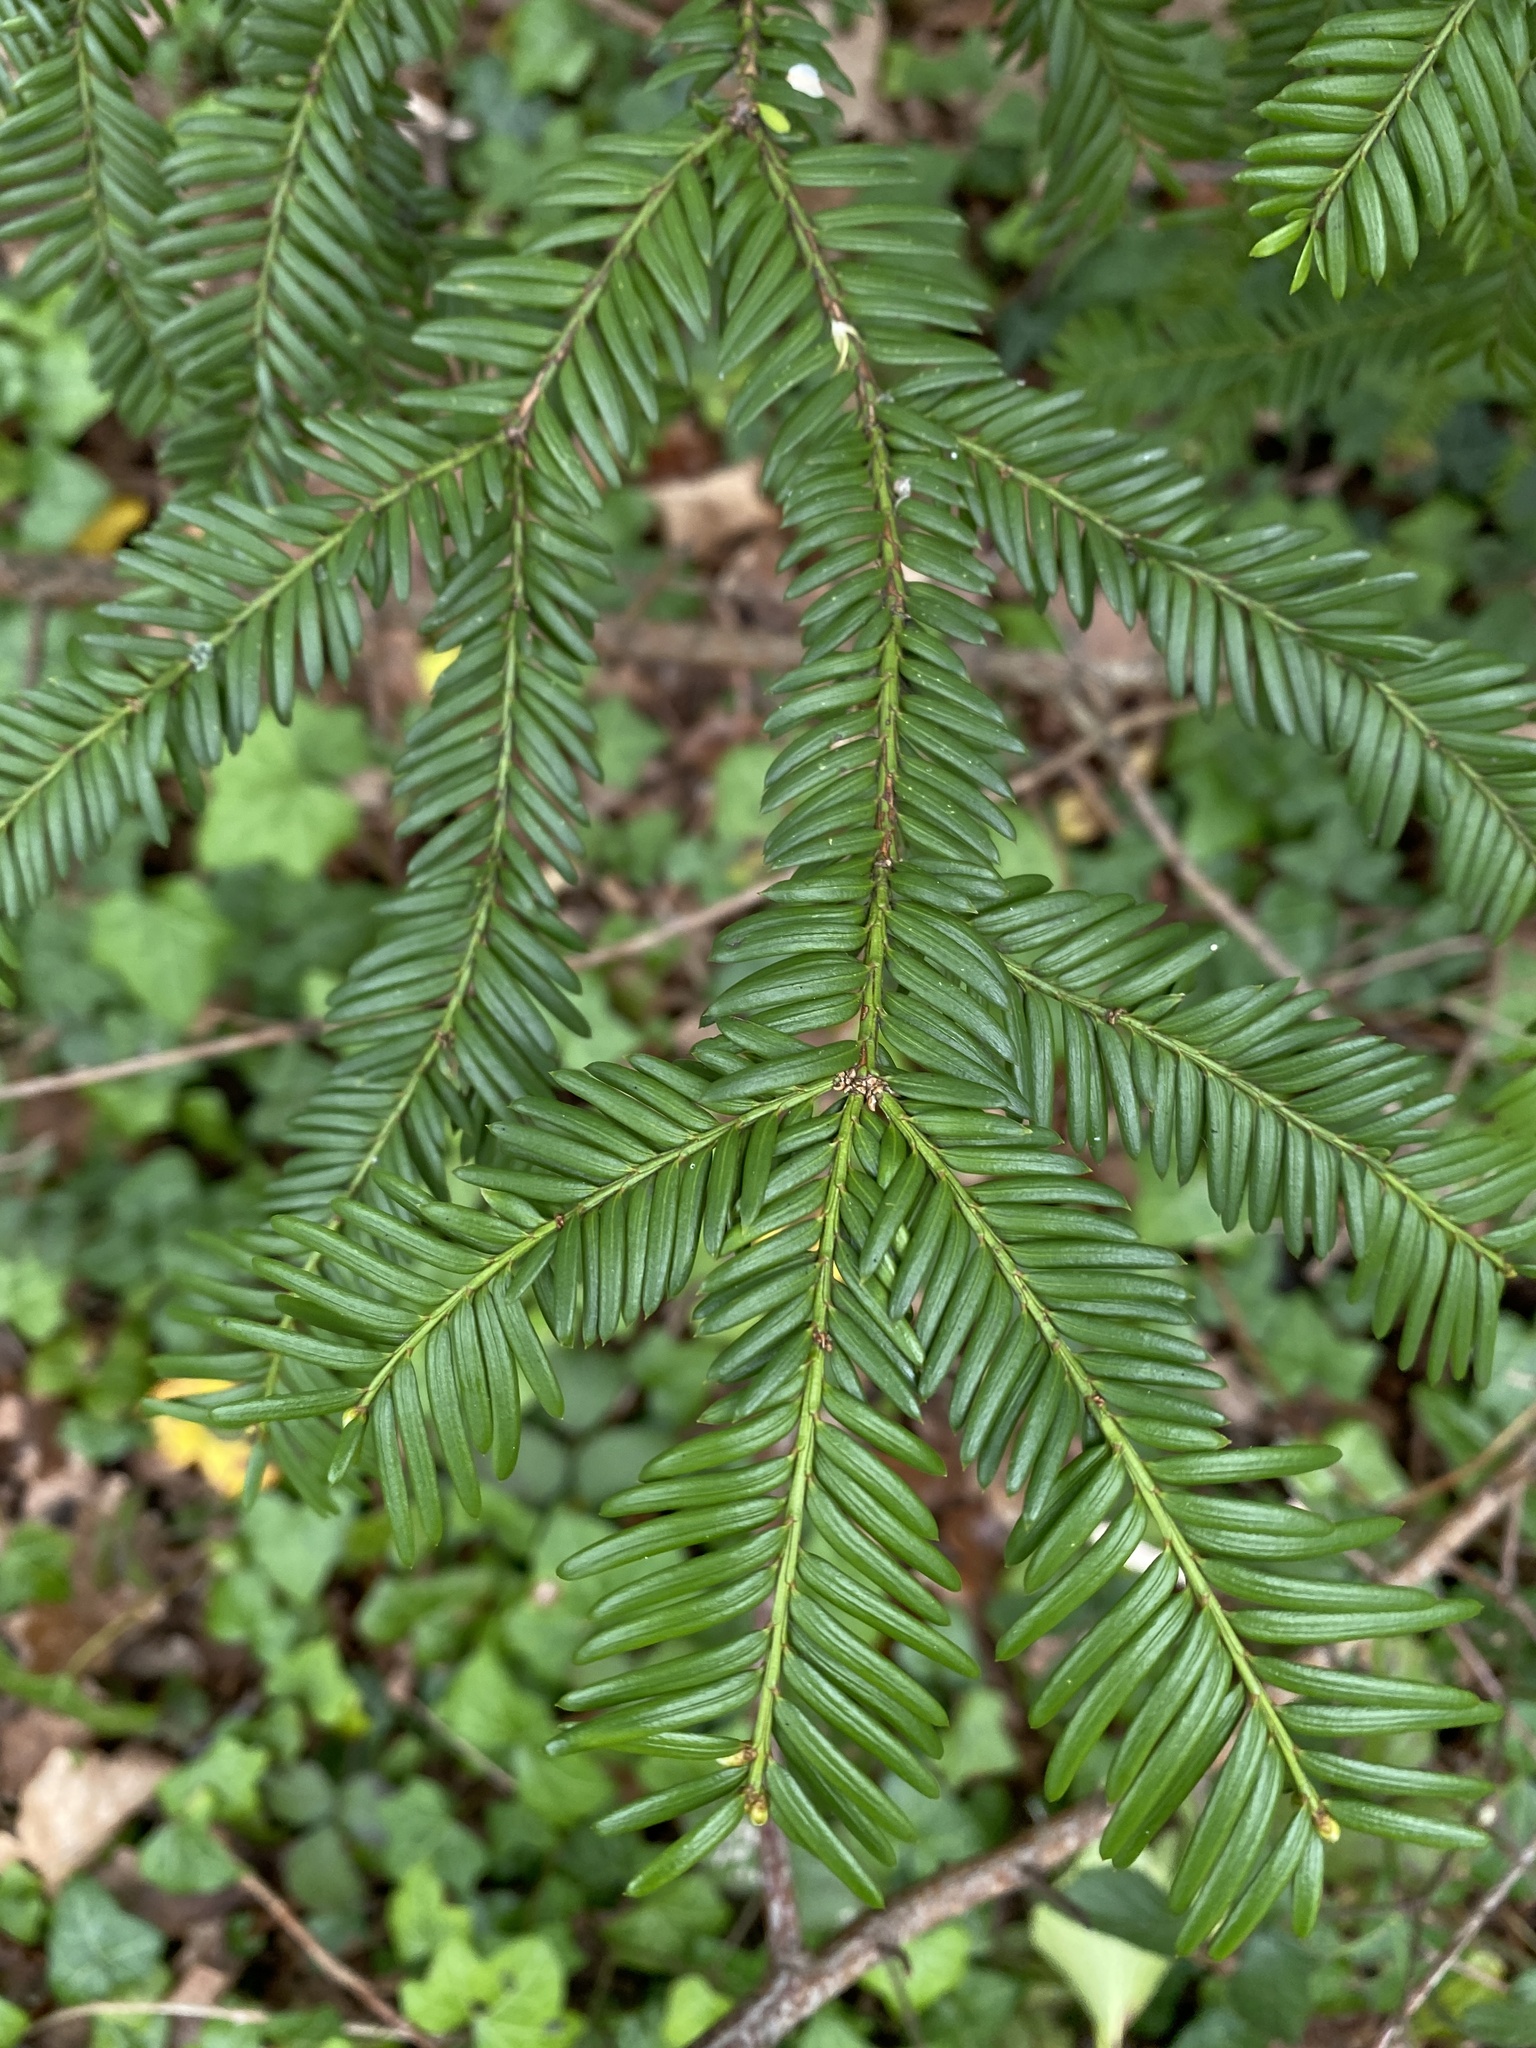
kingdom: Plantae
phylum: Tracheophyta
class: Pinopsida
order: Pinales
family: Taxaceae
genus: Taxus
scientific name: Taxus baccata
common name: Yew
